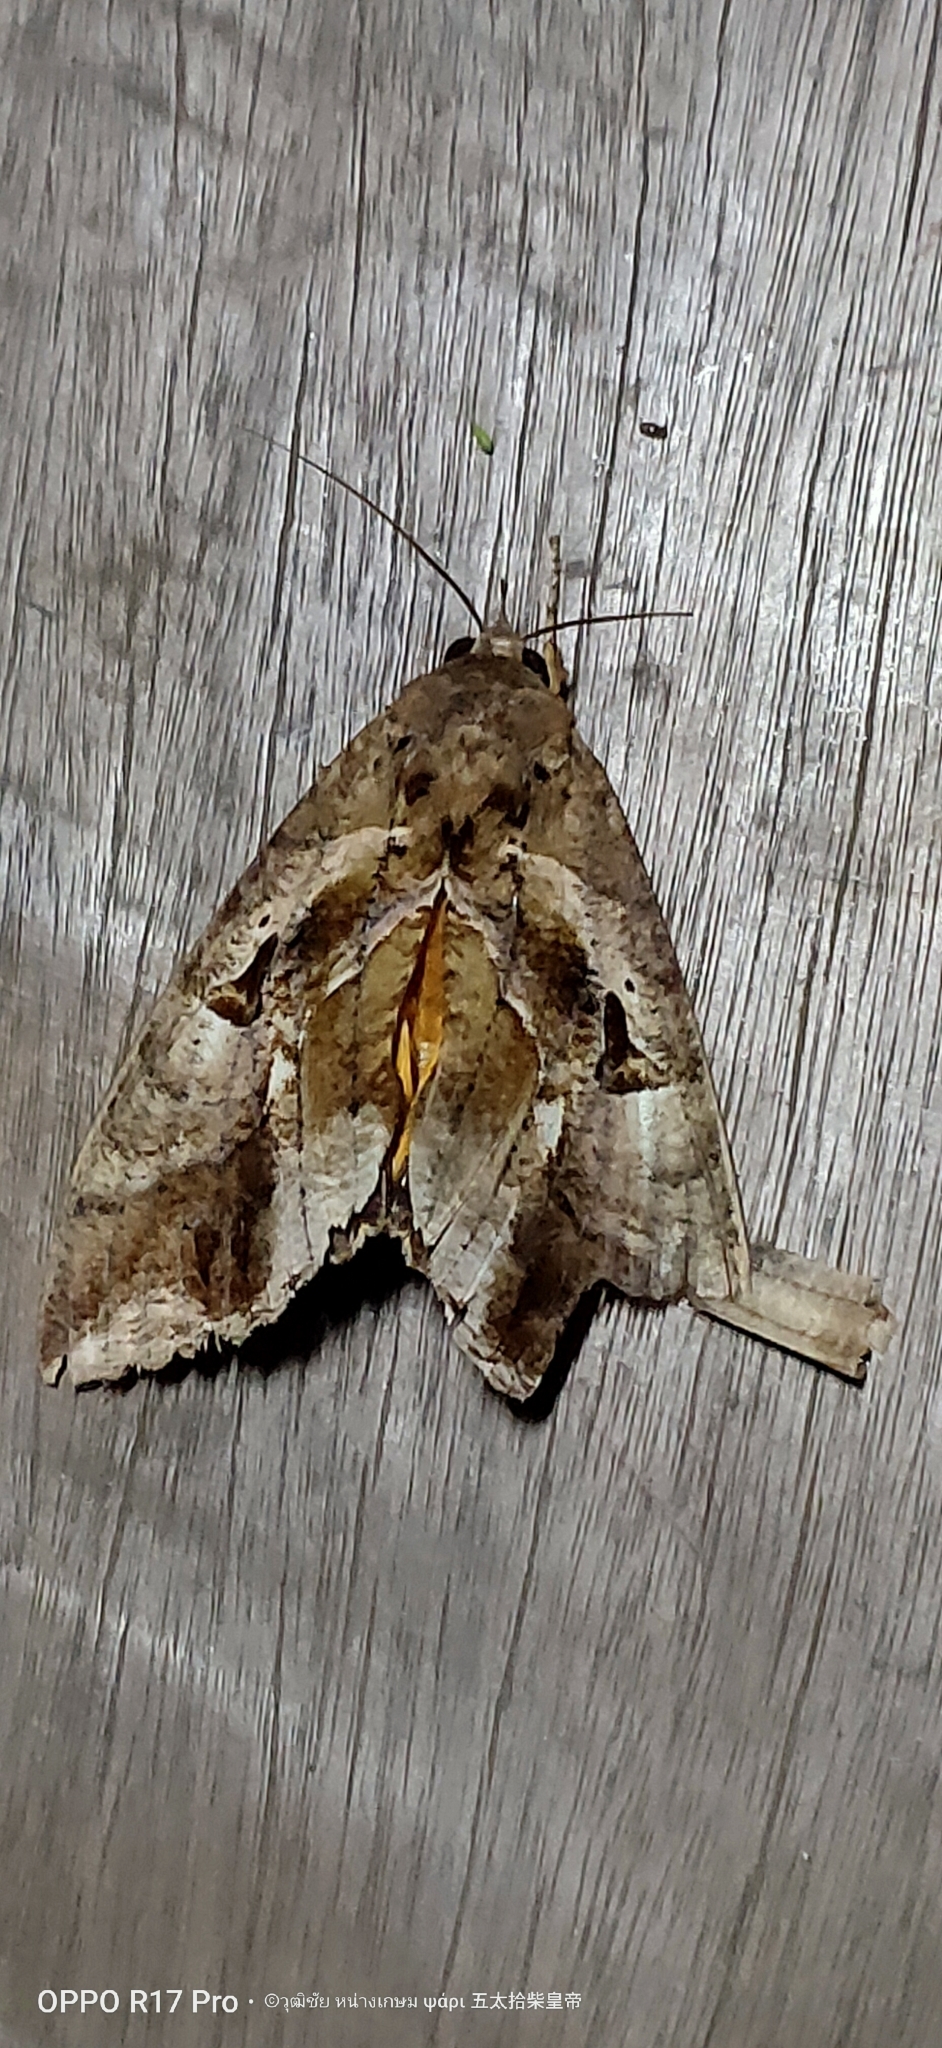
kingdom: Animalia
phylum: Arthropoda
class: Insecta
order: Lepidoptera
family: Erebidae
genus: Eudocima
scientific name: Eudocima phalonia
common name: Wasp
